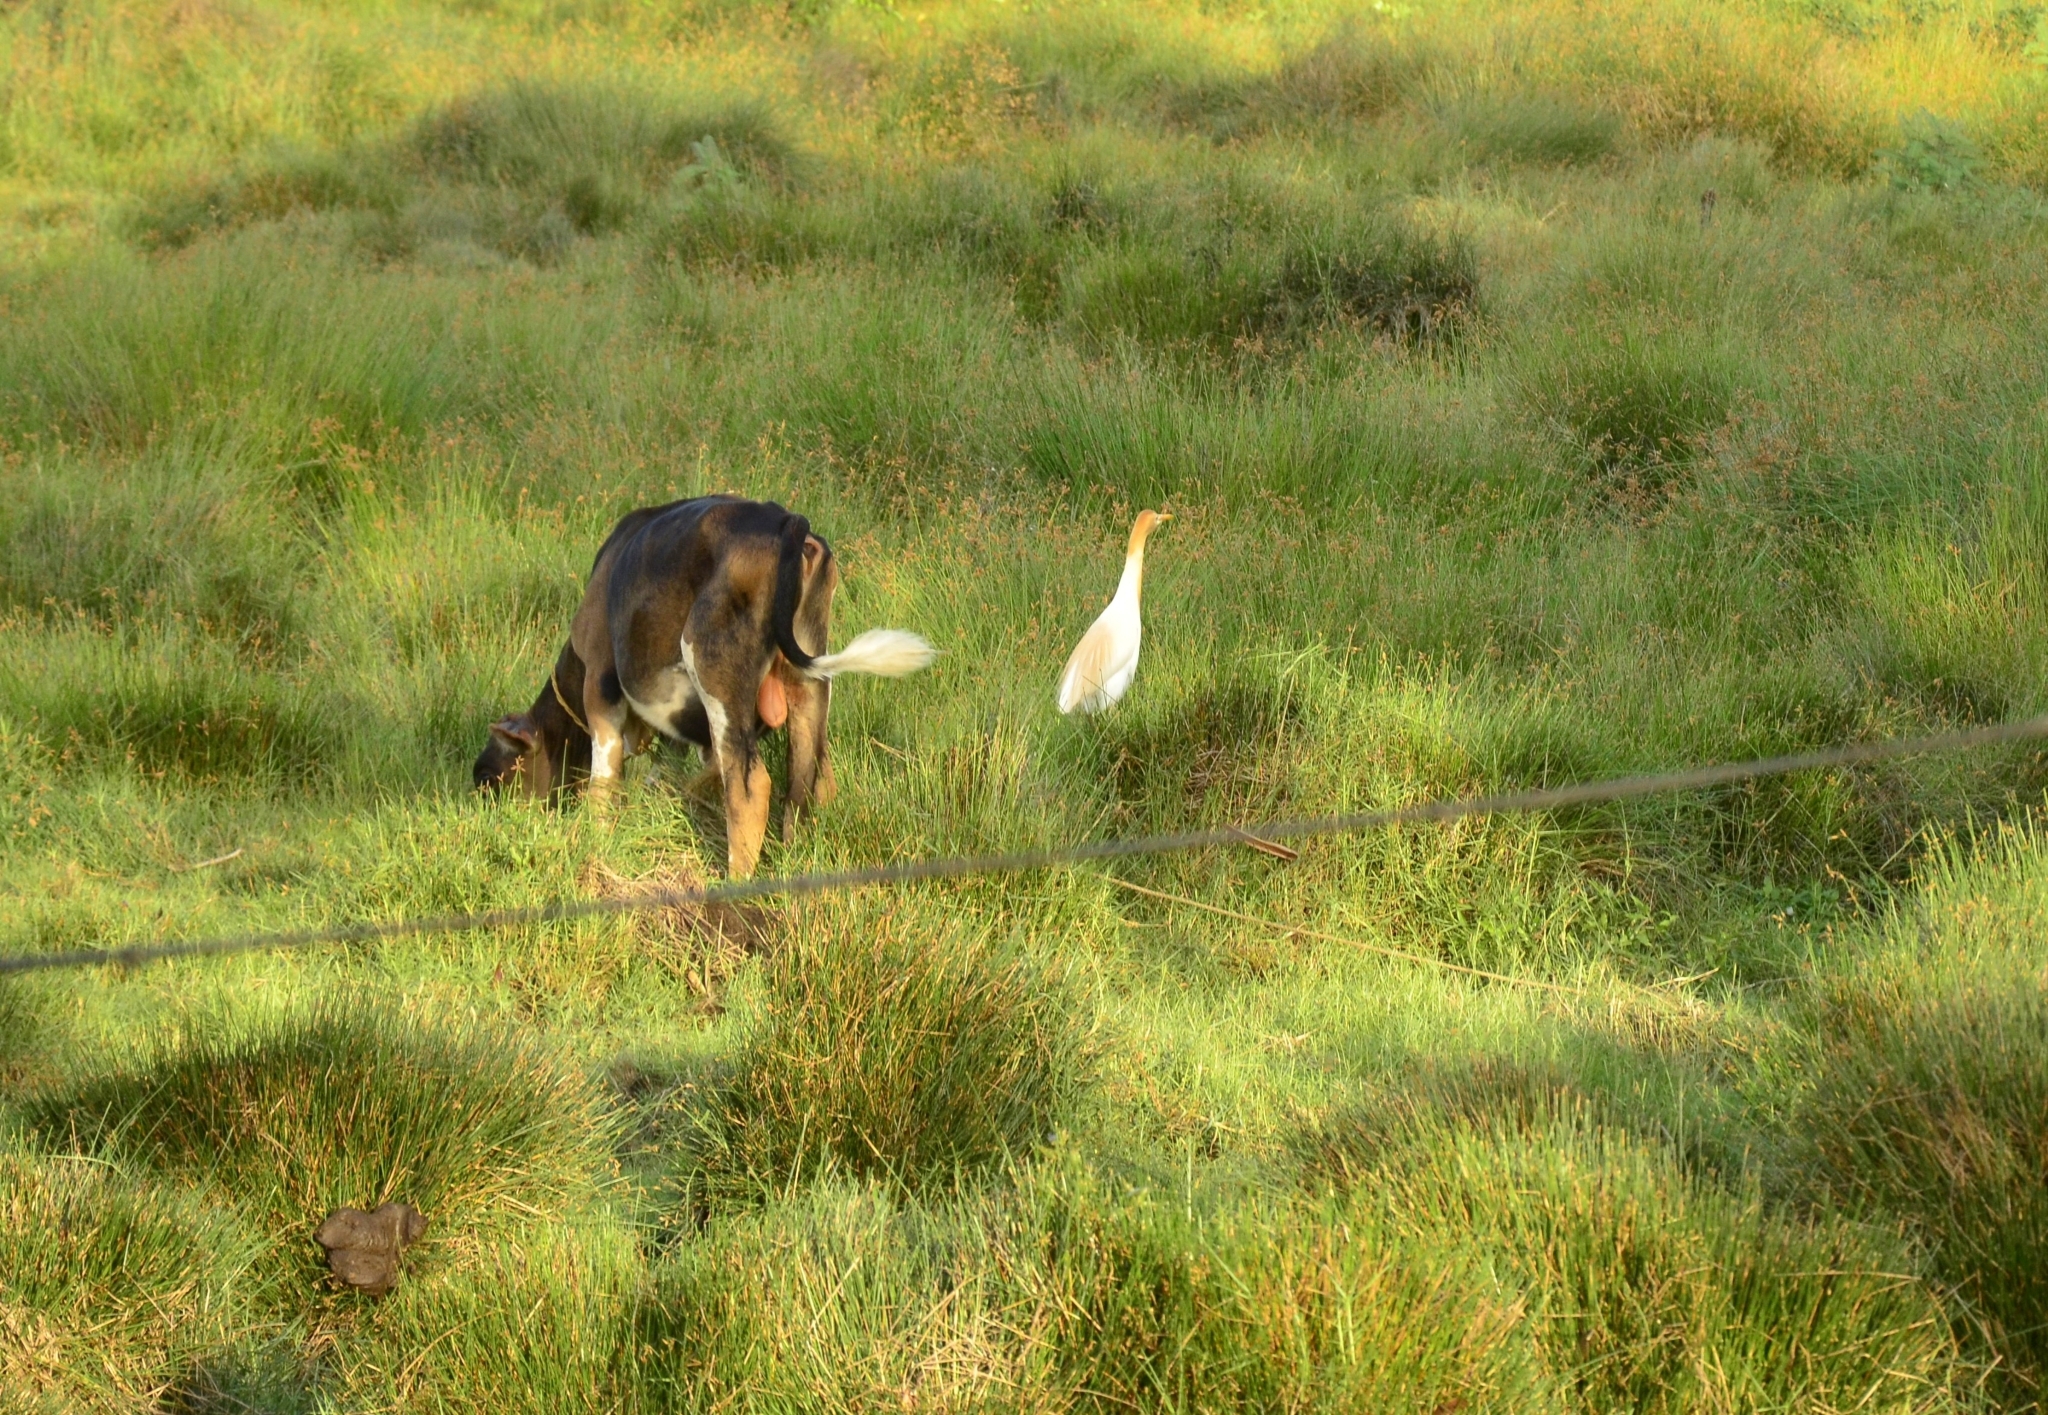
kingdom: Animalia
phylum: Chordata
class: Aves
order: Pelecaniformes
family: Ardeidae
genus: Bubulcus
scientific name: Bubulcus coromandus
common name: Eastern cattle egret
